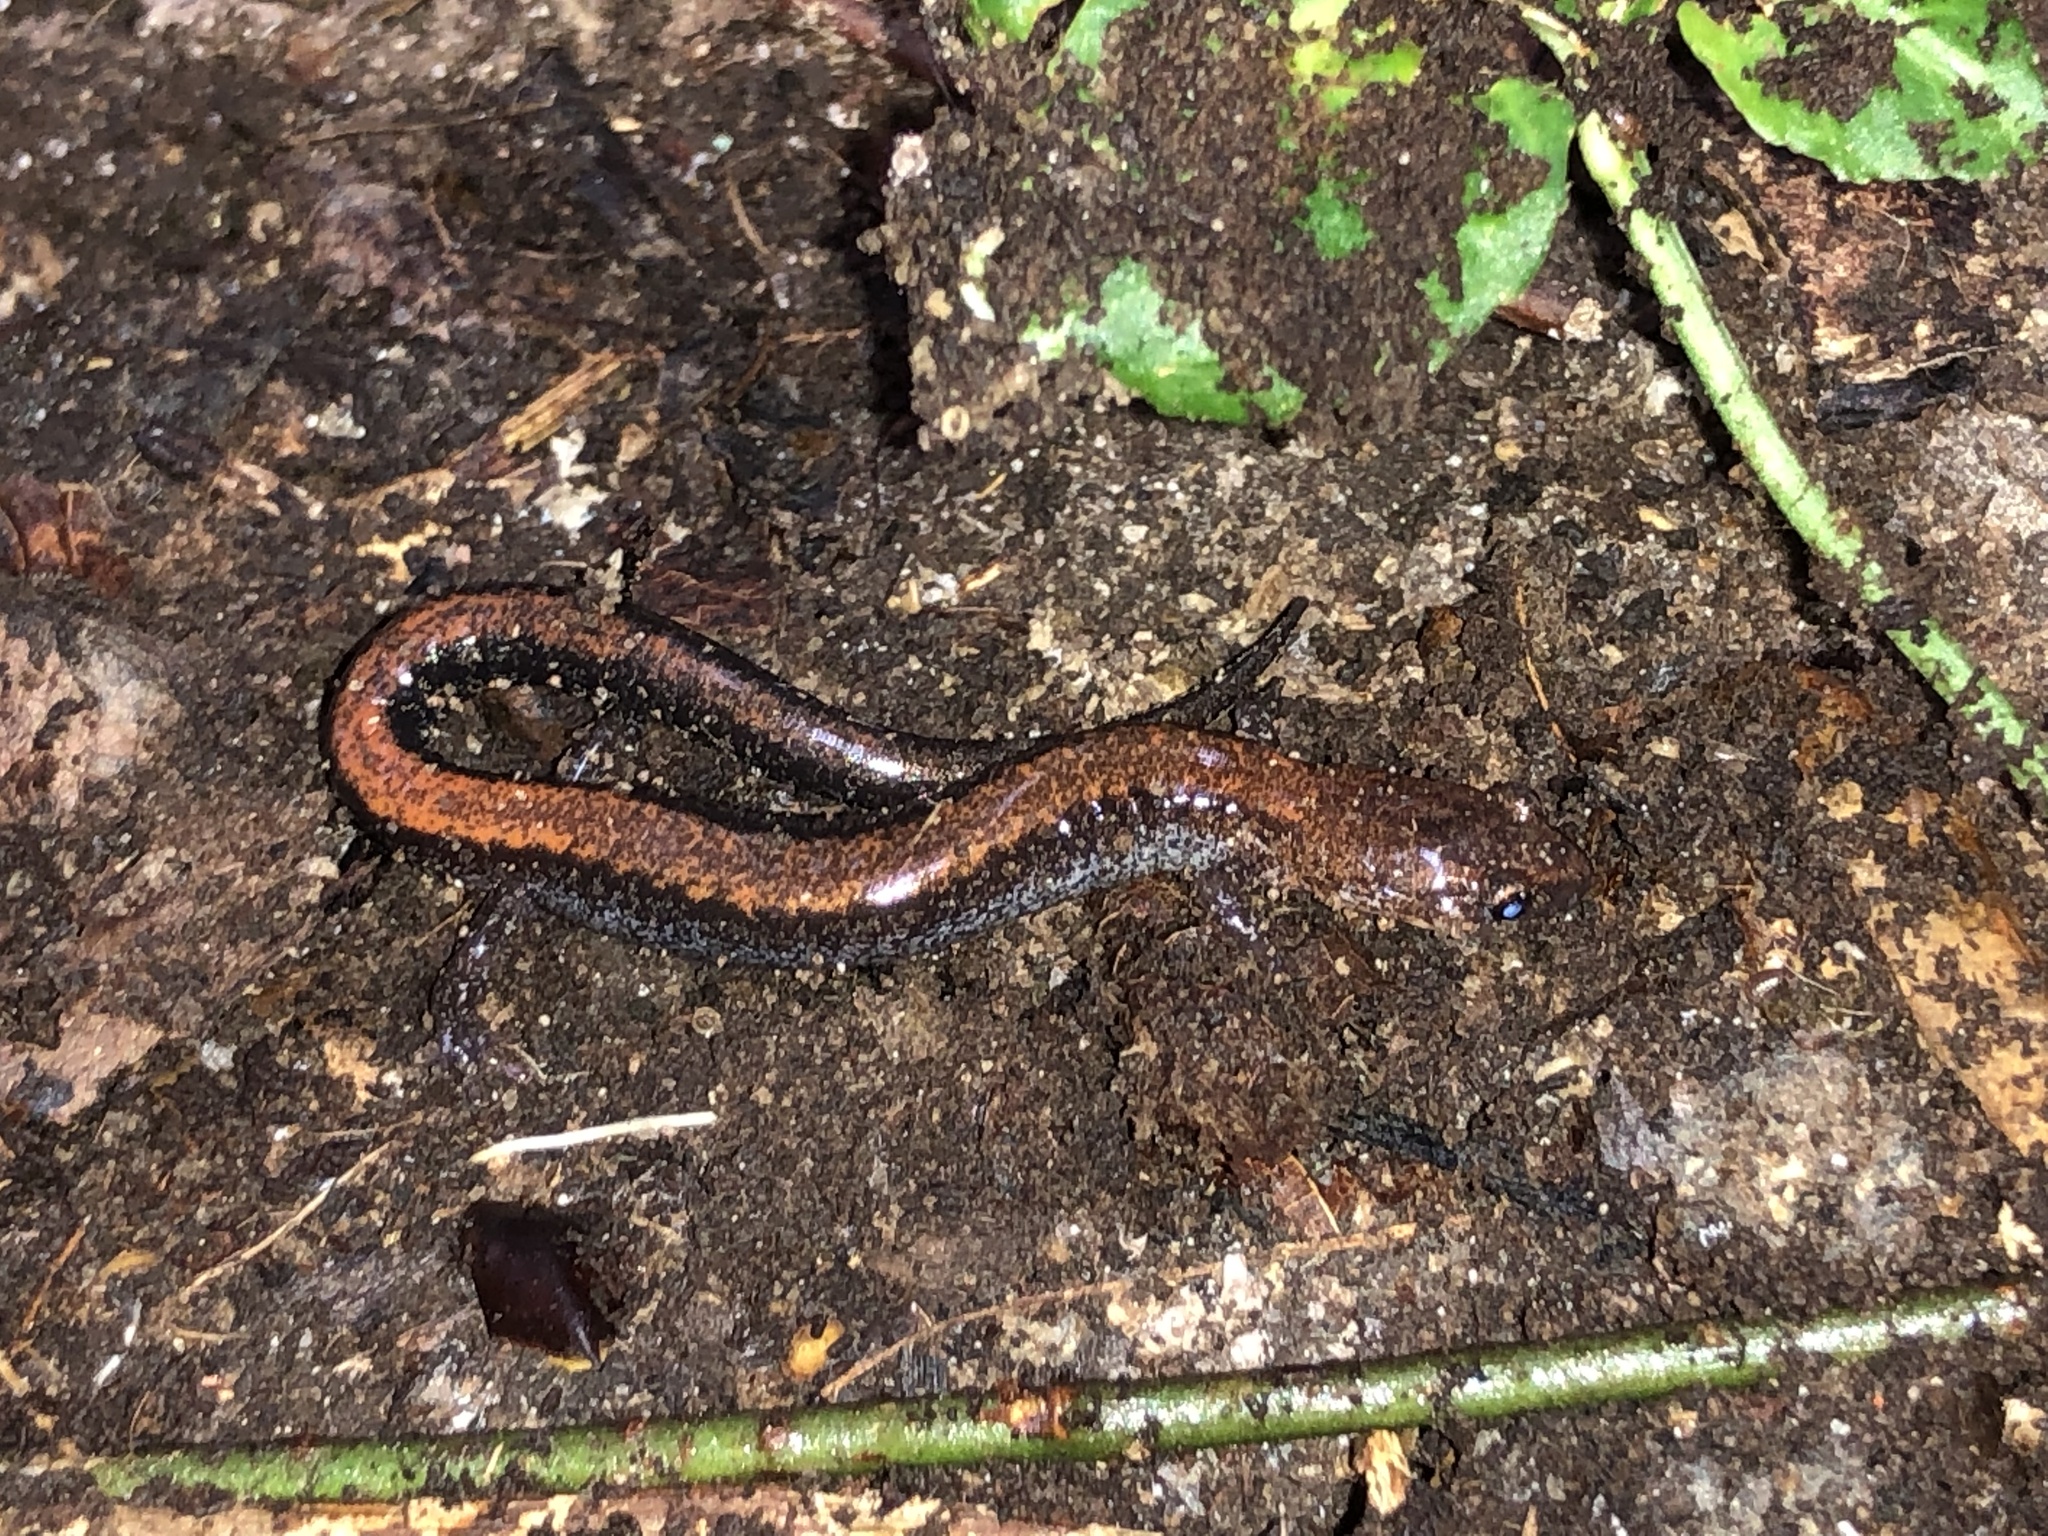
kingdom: Animalia
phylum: Chordata
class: Amphibia
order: Caudata
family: Plethodontidae
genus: Plethodon
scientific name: Plethodon cinereus
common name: Redback salamander
